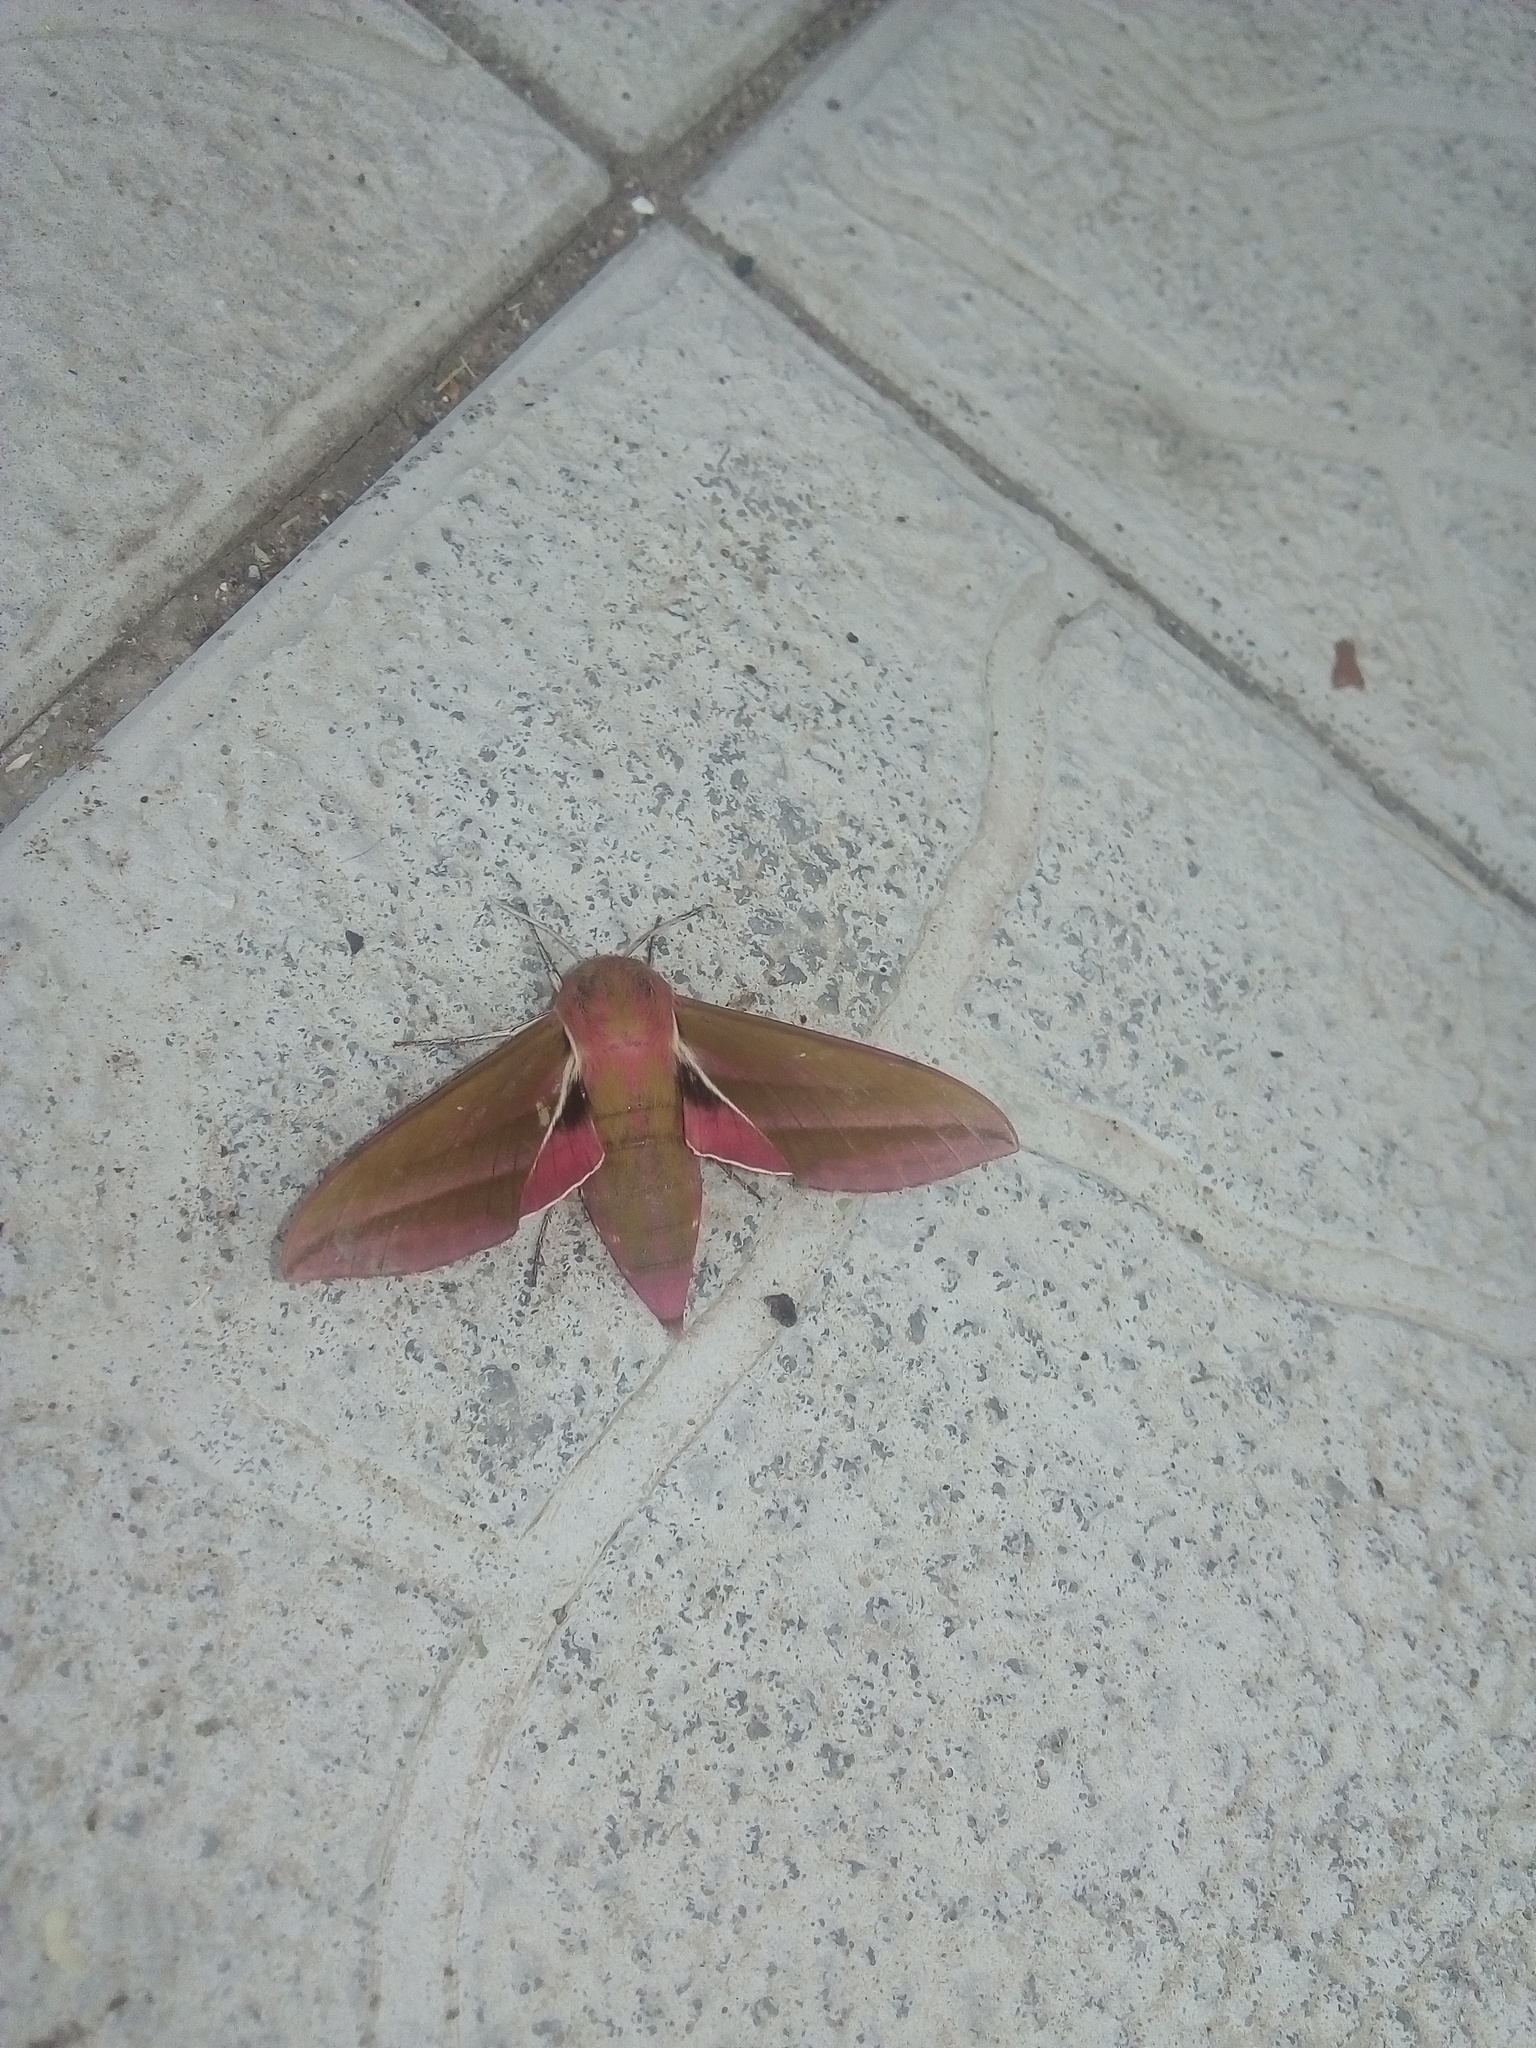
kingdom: Animalia
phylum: Arthropoda
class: Insecta
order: Lepidoptera
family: Sphingidae
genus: Deilephila
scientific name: Deilephila elpenor
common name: Elephant hawk-moth
